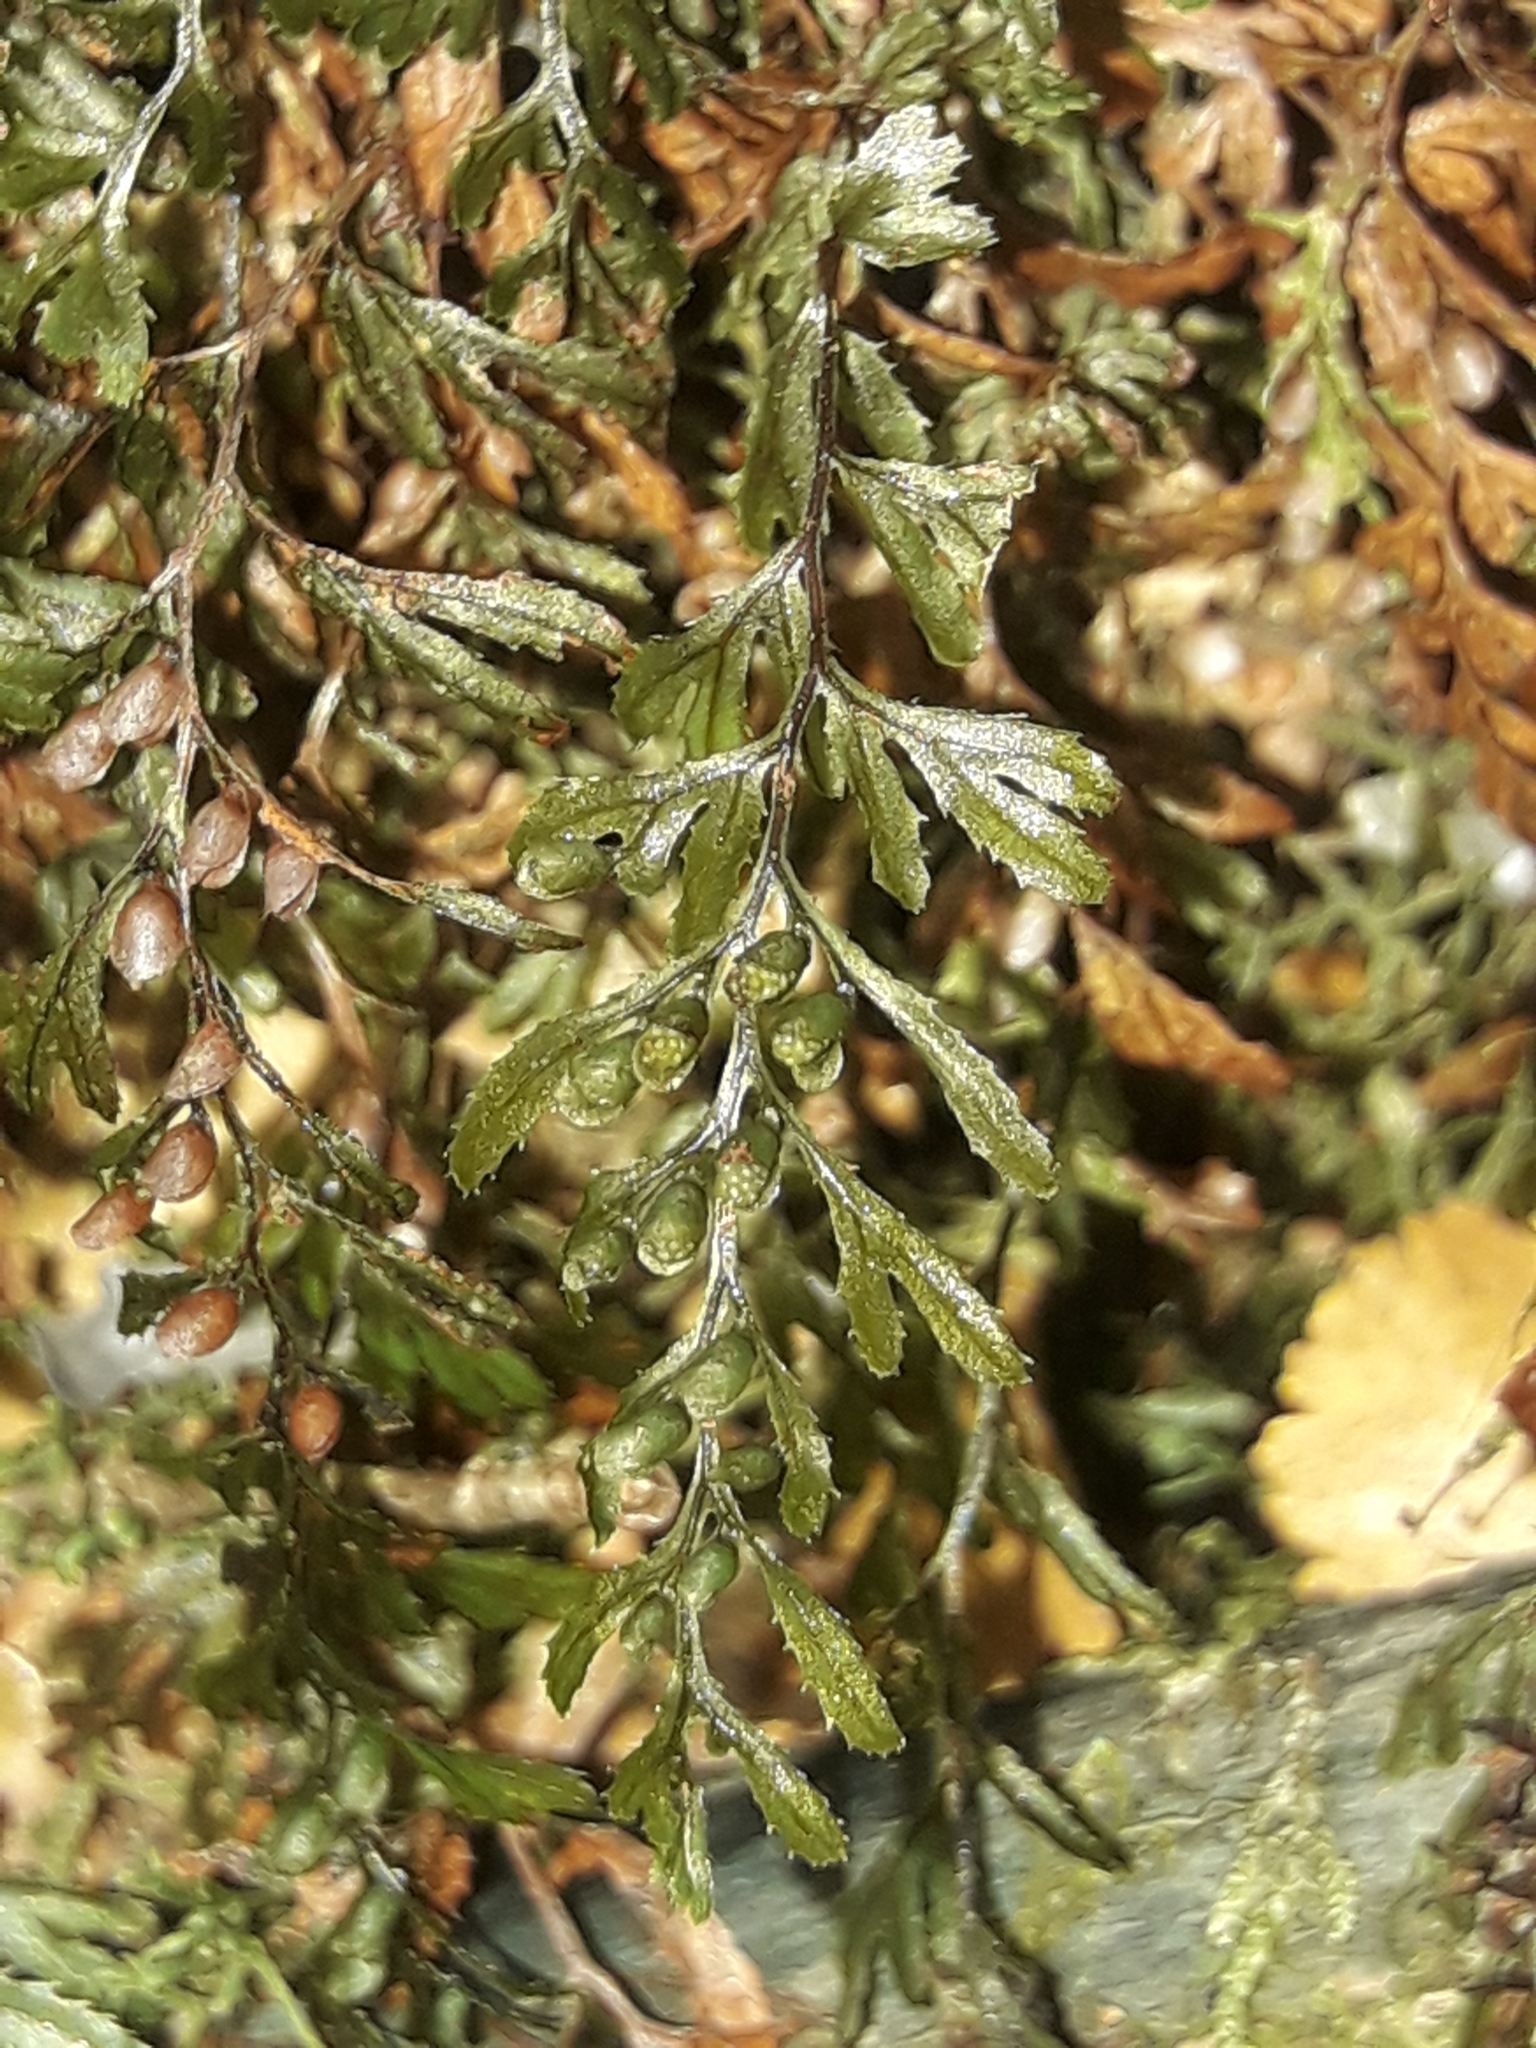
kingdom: Plantae
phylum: Tracheophyta
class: Polypodiopsida
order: Hymenophyllales
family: Hymenophyllaceae
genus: Hymenophyllum
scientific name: Hymenophyllum peltatum
